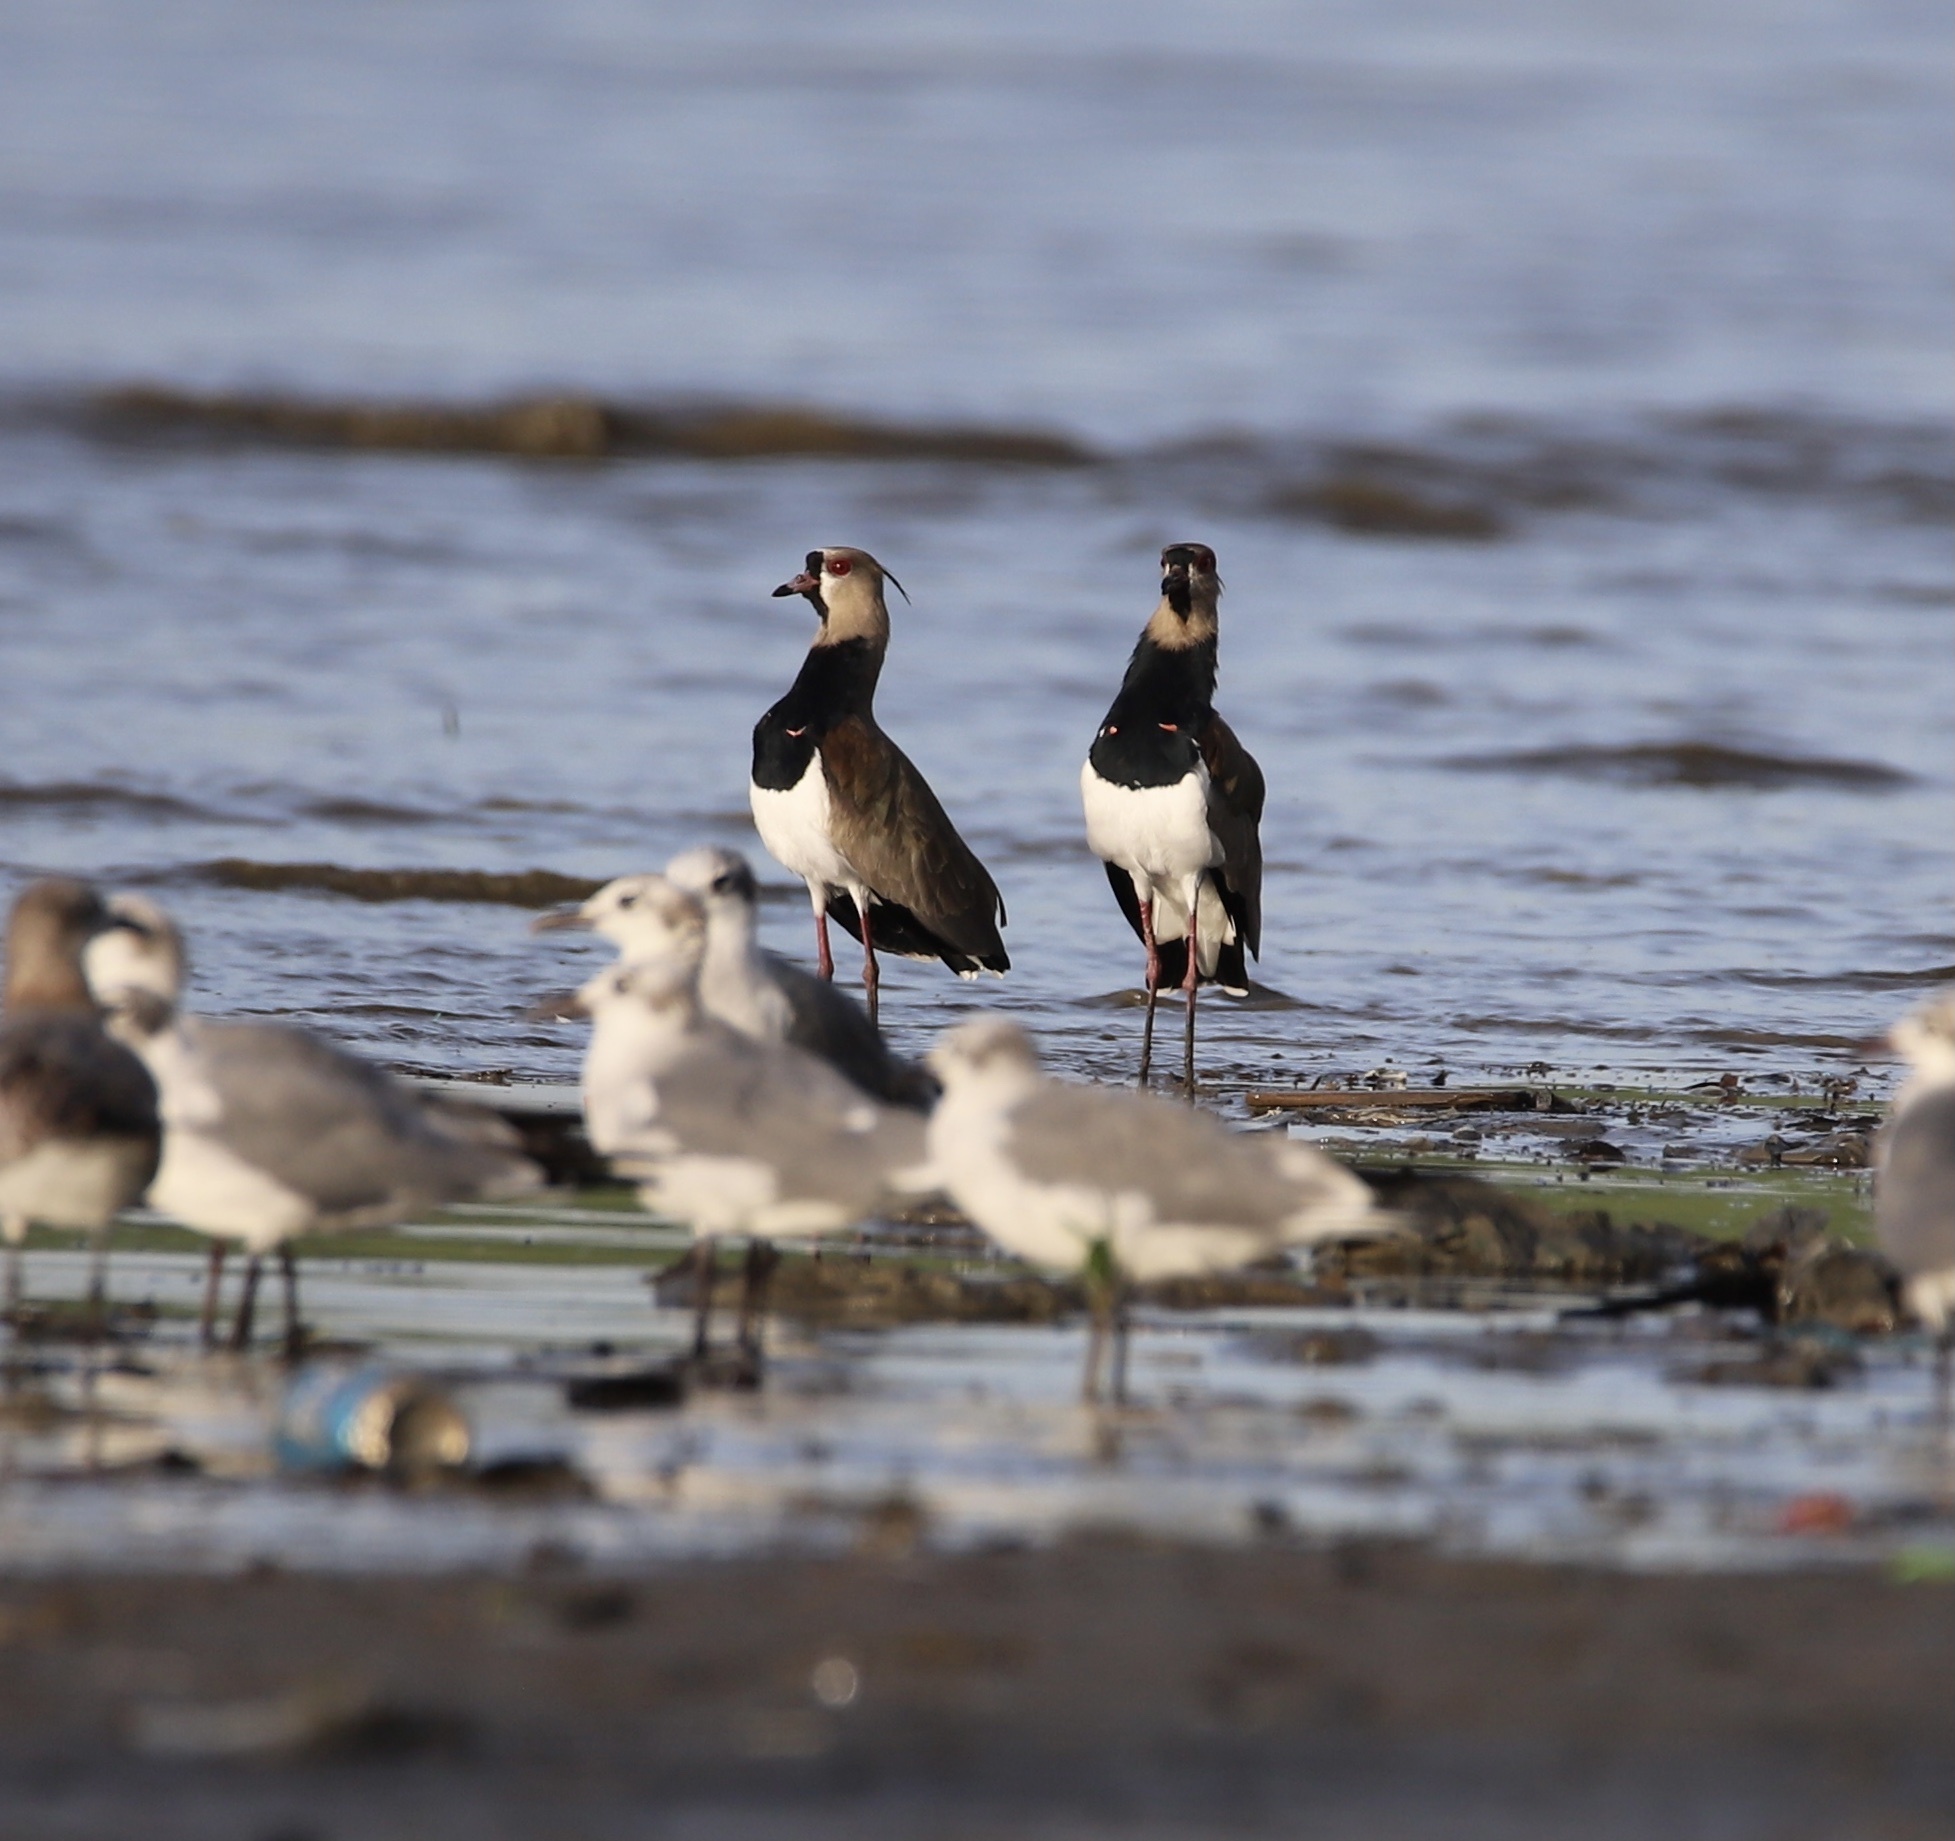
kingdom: Animalia
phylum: Chordata
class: Aves
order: Charadriiformes
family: Charadriidae
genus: Vanellus
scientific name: Vanellus chilensis
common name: Southern lapwing
